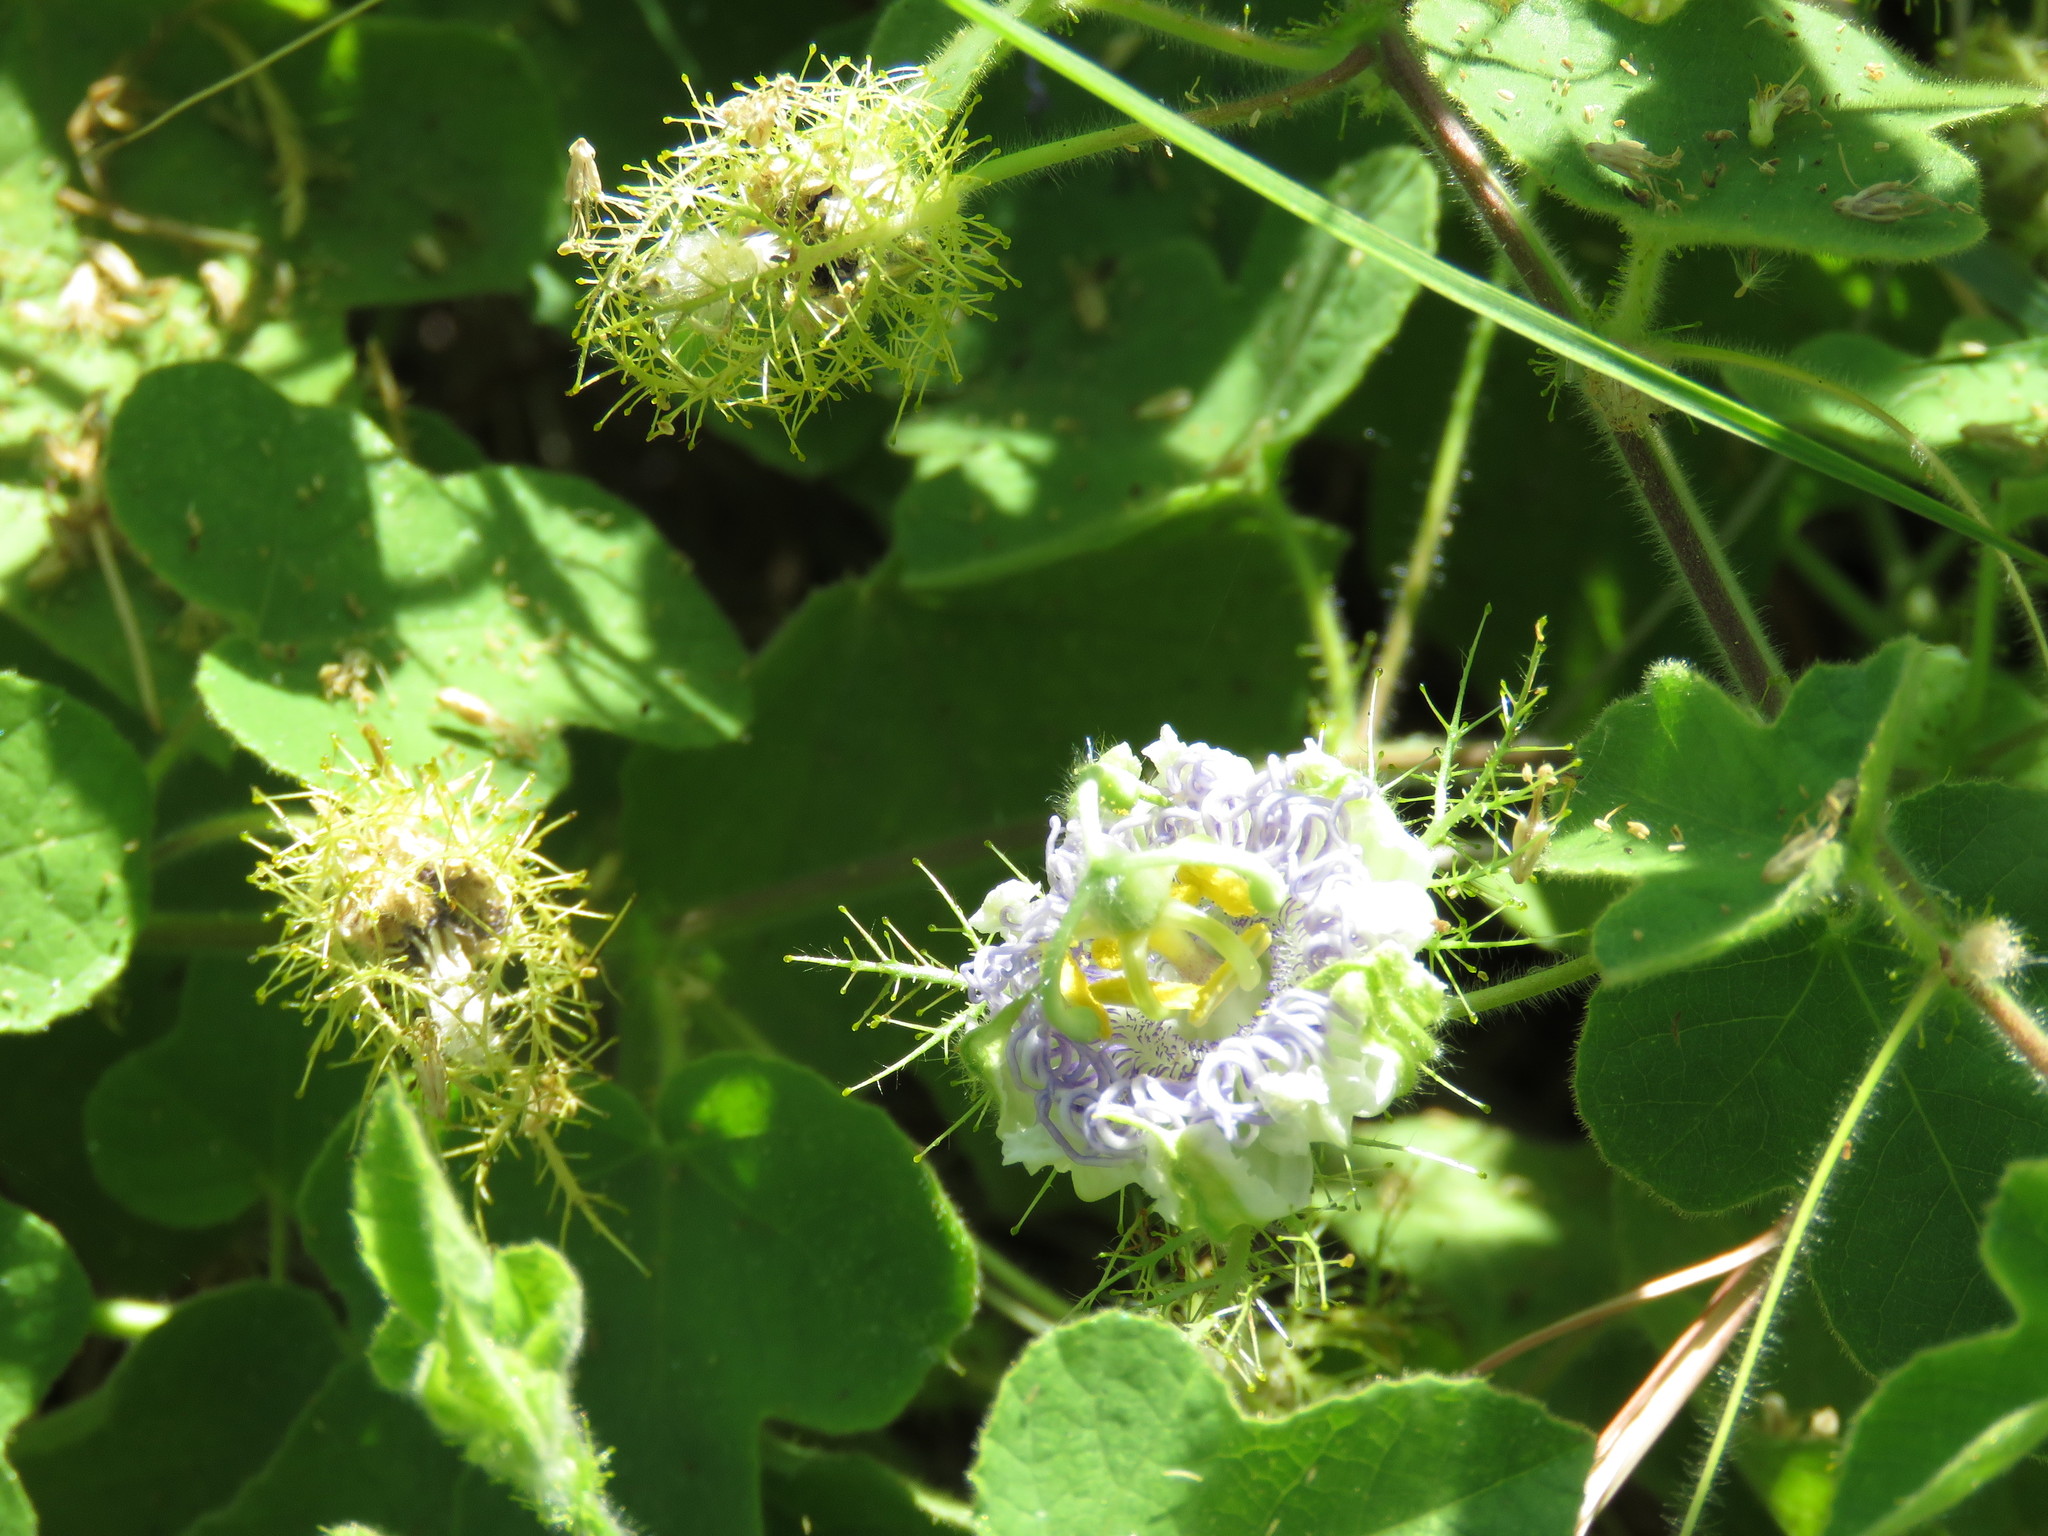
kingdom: Plantae
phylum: Tracheophyta
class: Magnoliopsida
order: Malpighiales
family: Passifloraceae
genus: Passiflora
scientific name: Passiflora foetida
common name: Fetid passionflower
